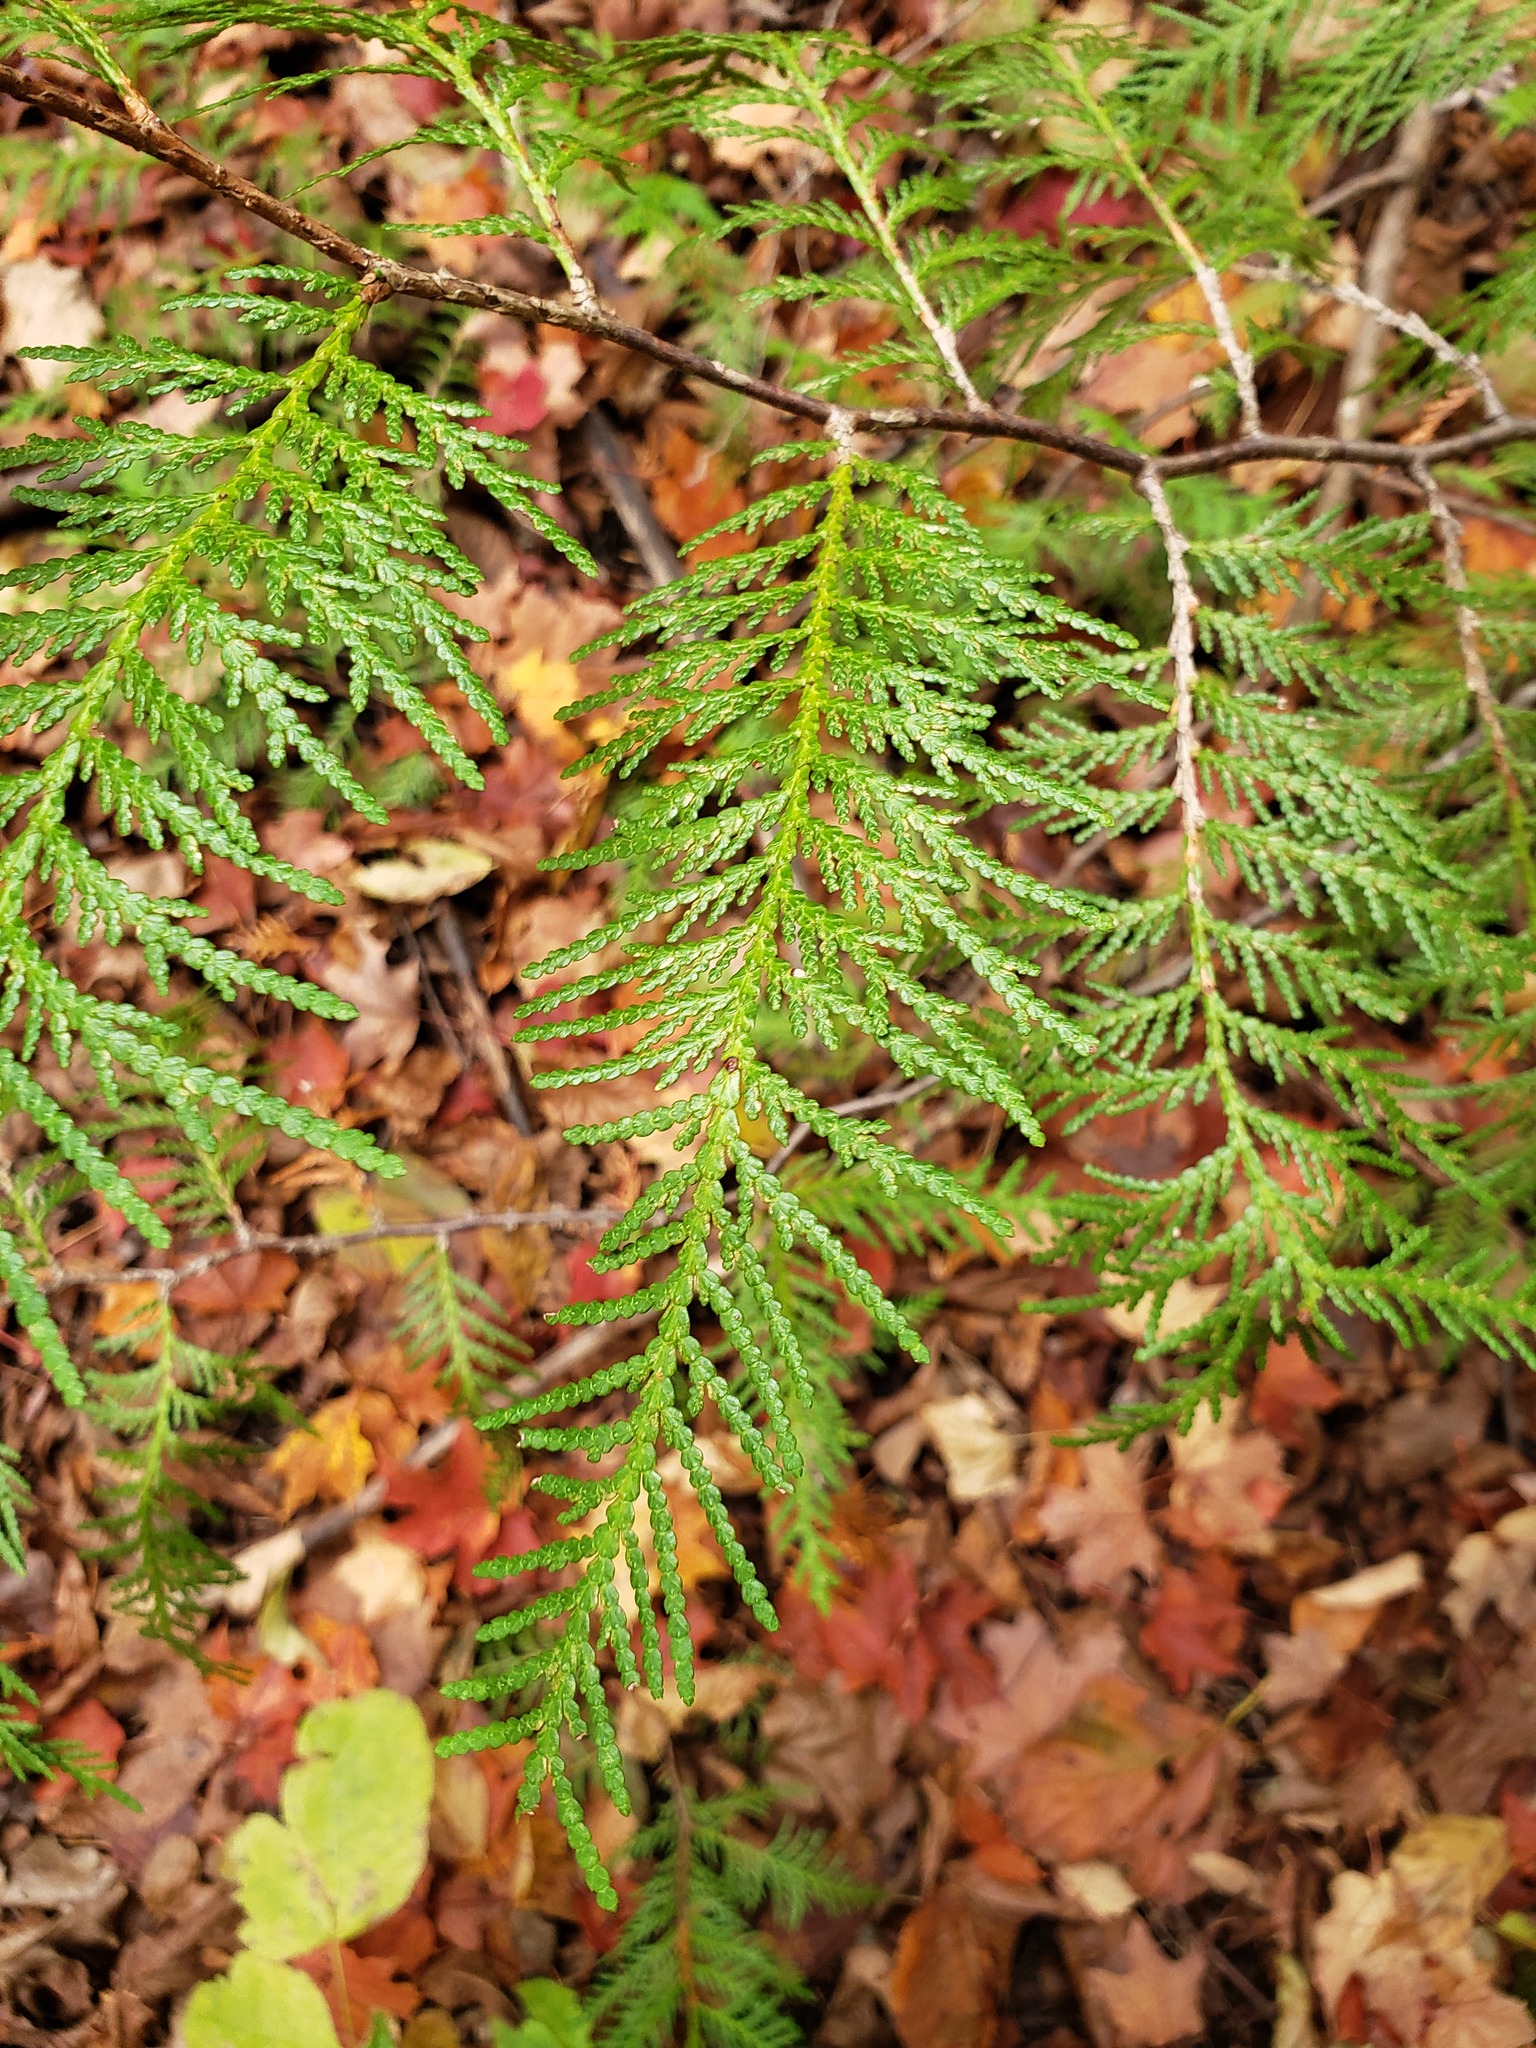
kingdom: Plantae
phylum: Tracheophyta
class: Pinopsida
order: Pinales
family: Cupressaceae
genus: Thuja
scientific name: Thuja occidentalis
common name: Northern white-cedar
